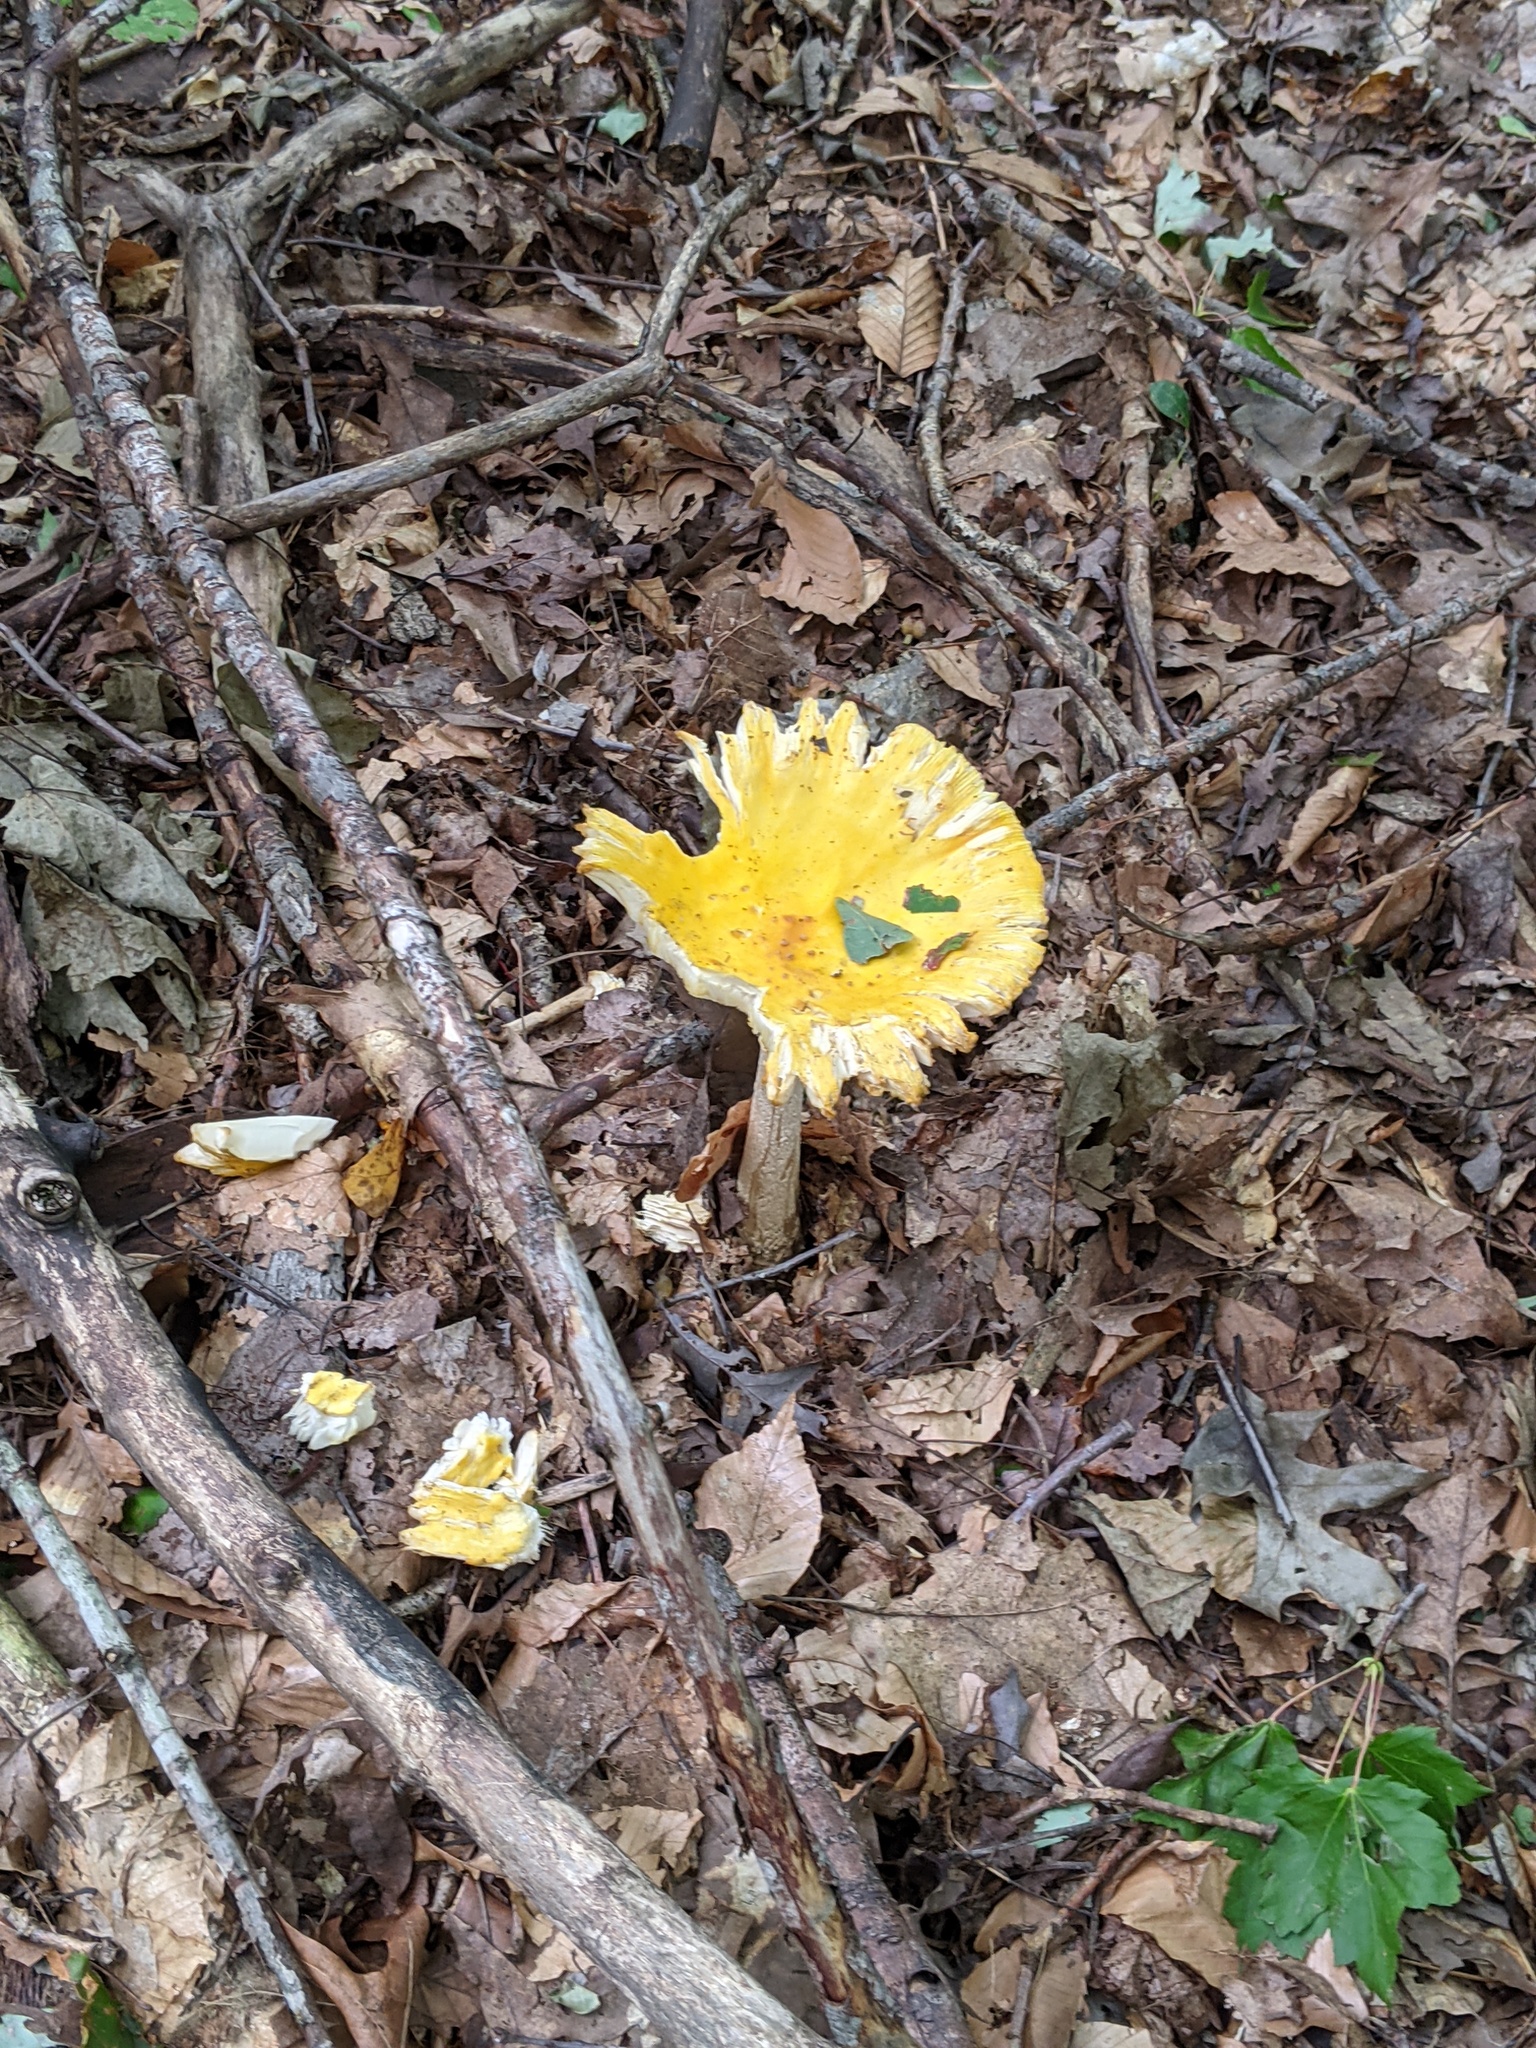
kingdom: Fungi
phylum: Basidiomycota
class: Agaricomycetes
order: Agaricales
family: Amanitaceae
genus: Amanita
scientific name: Amanita muscaria
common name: Fly agaric
